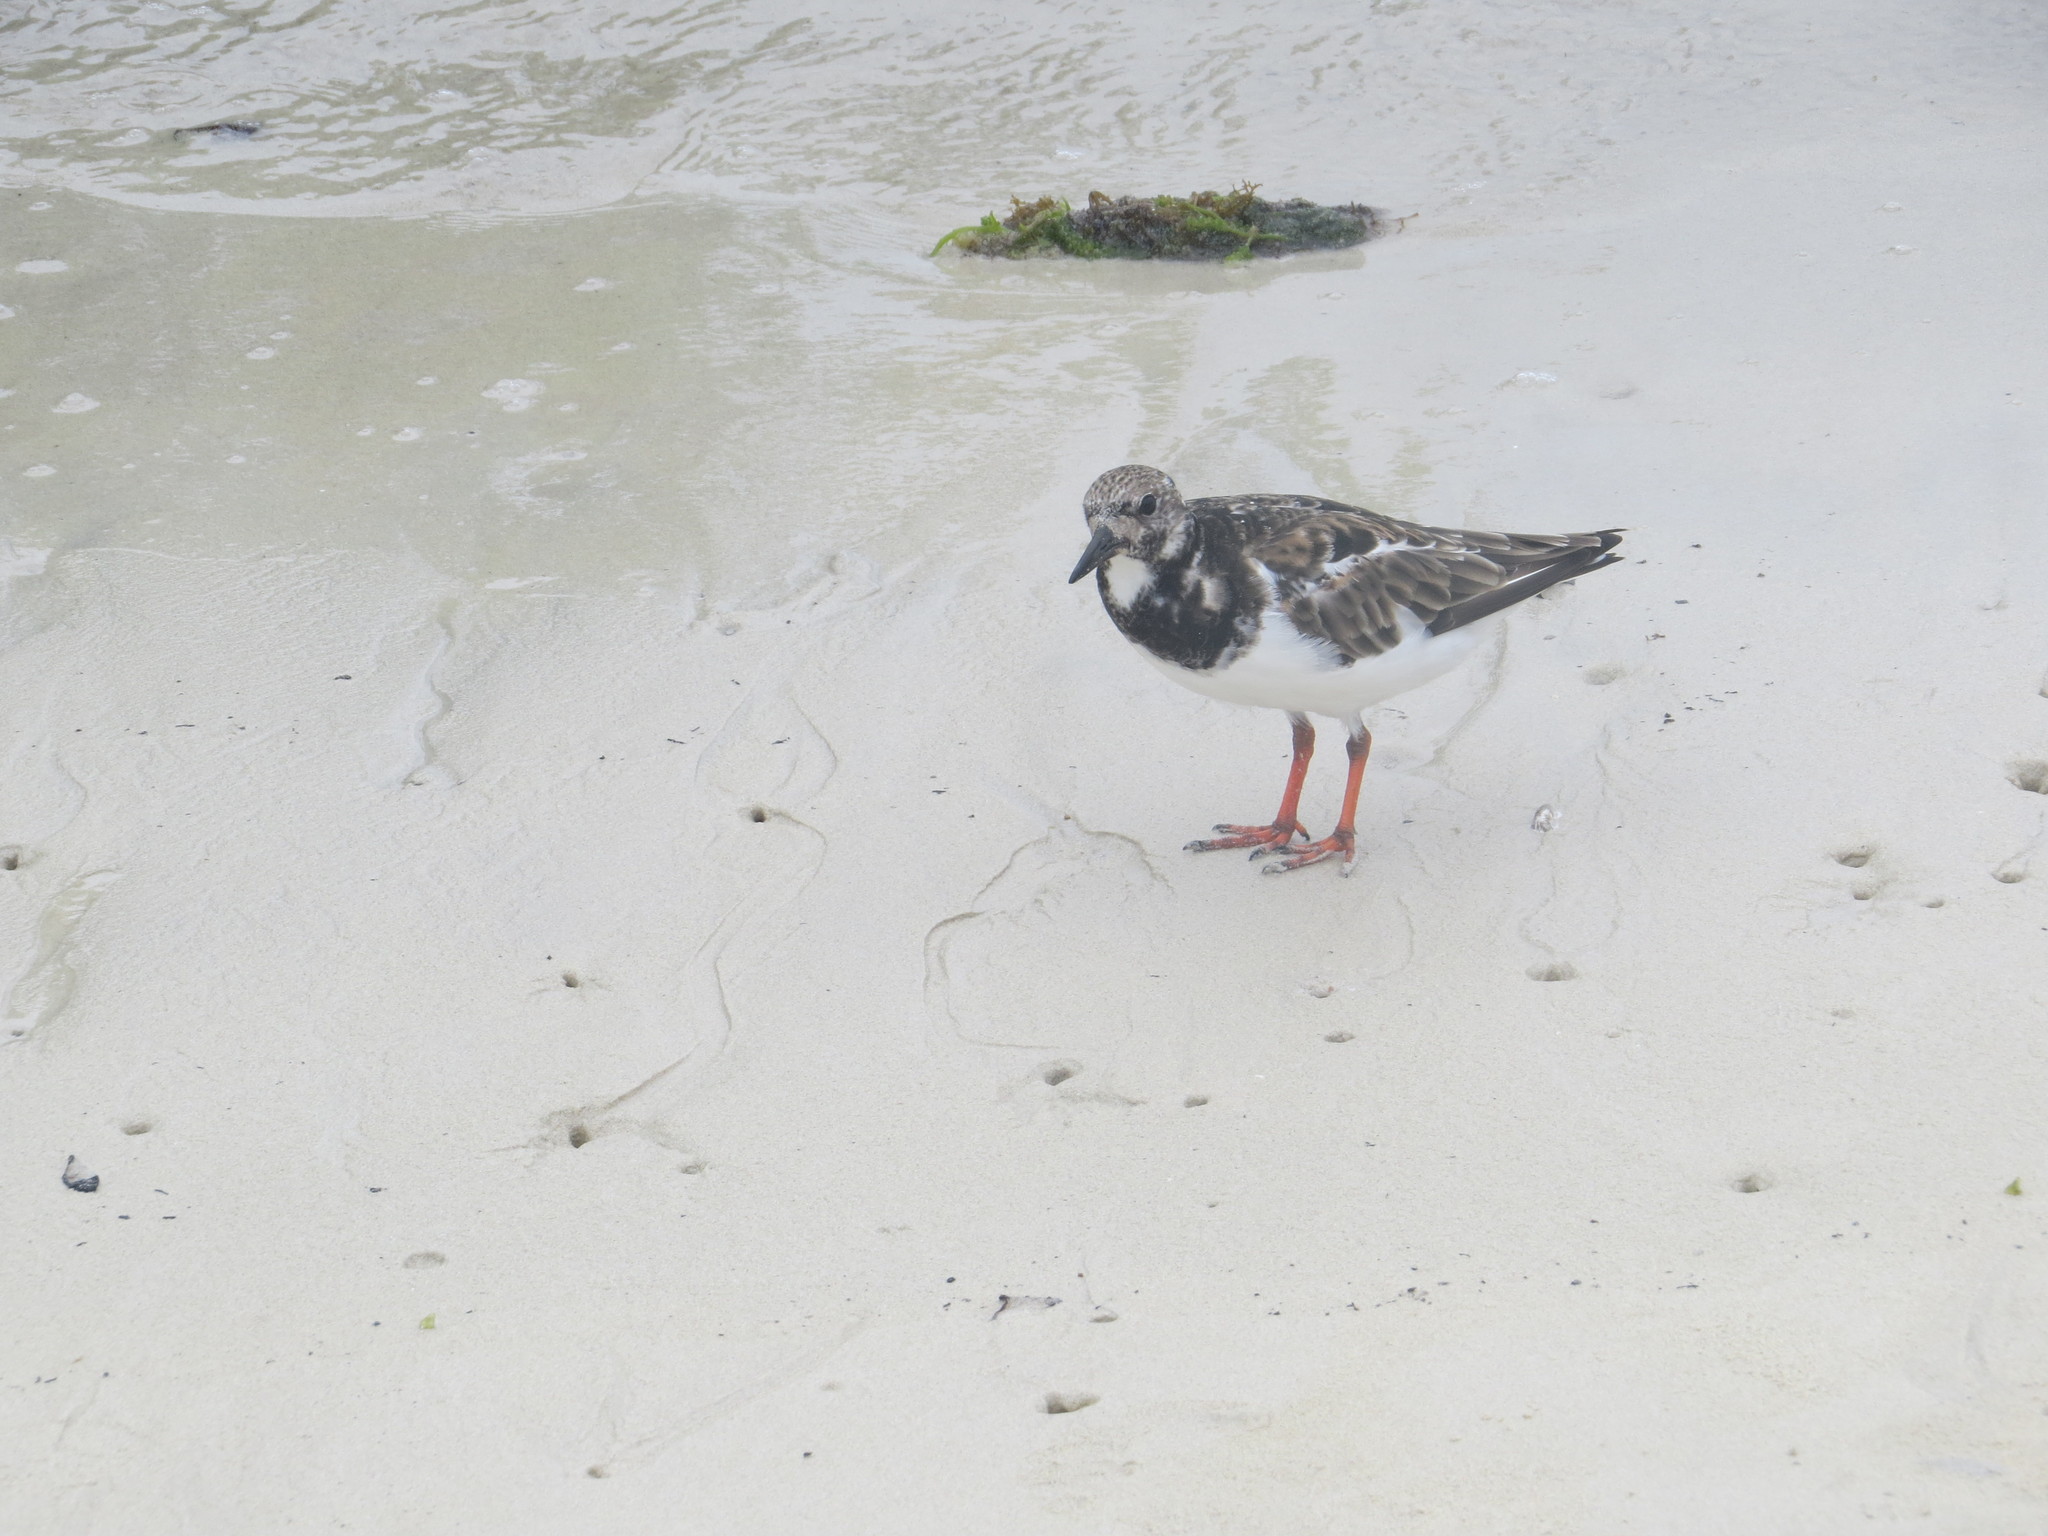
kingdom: Animalia
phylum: Chordata
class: Aves
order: Charadriiformes
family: Scolopacidae
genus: Arenaria
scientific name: Arenaria interpres
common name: Ruddy turnstone
